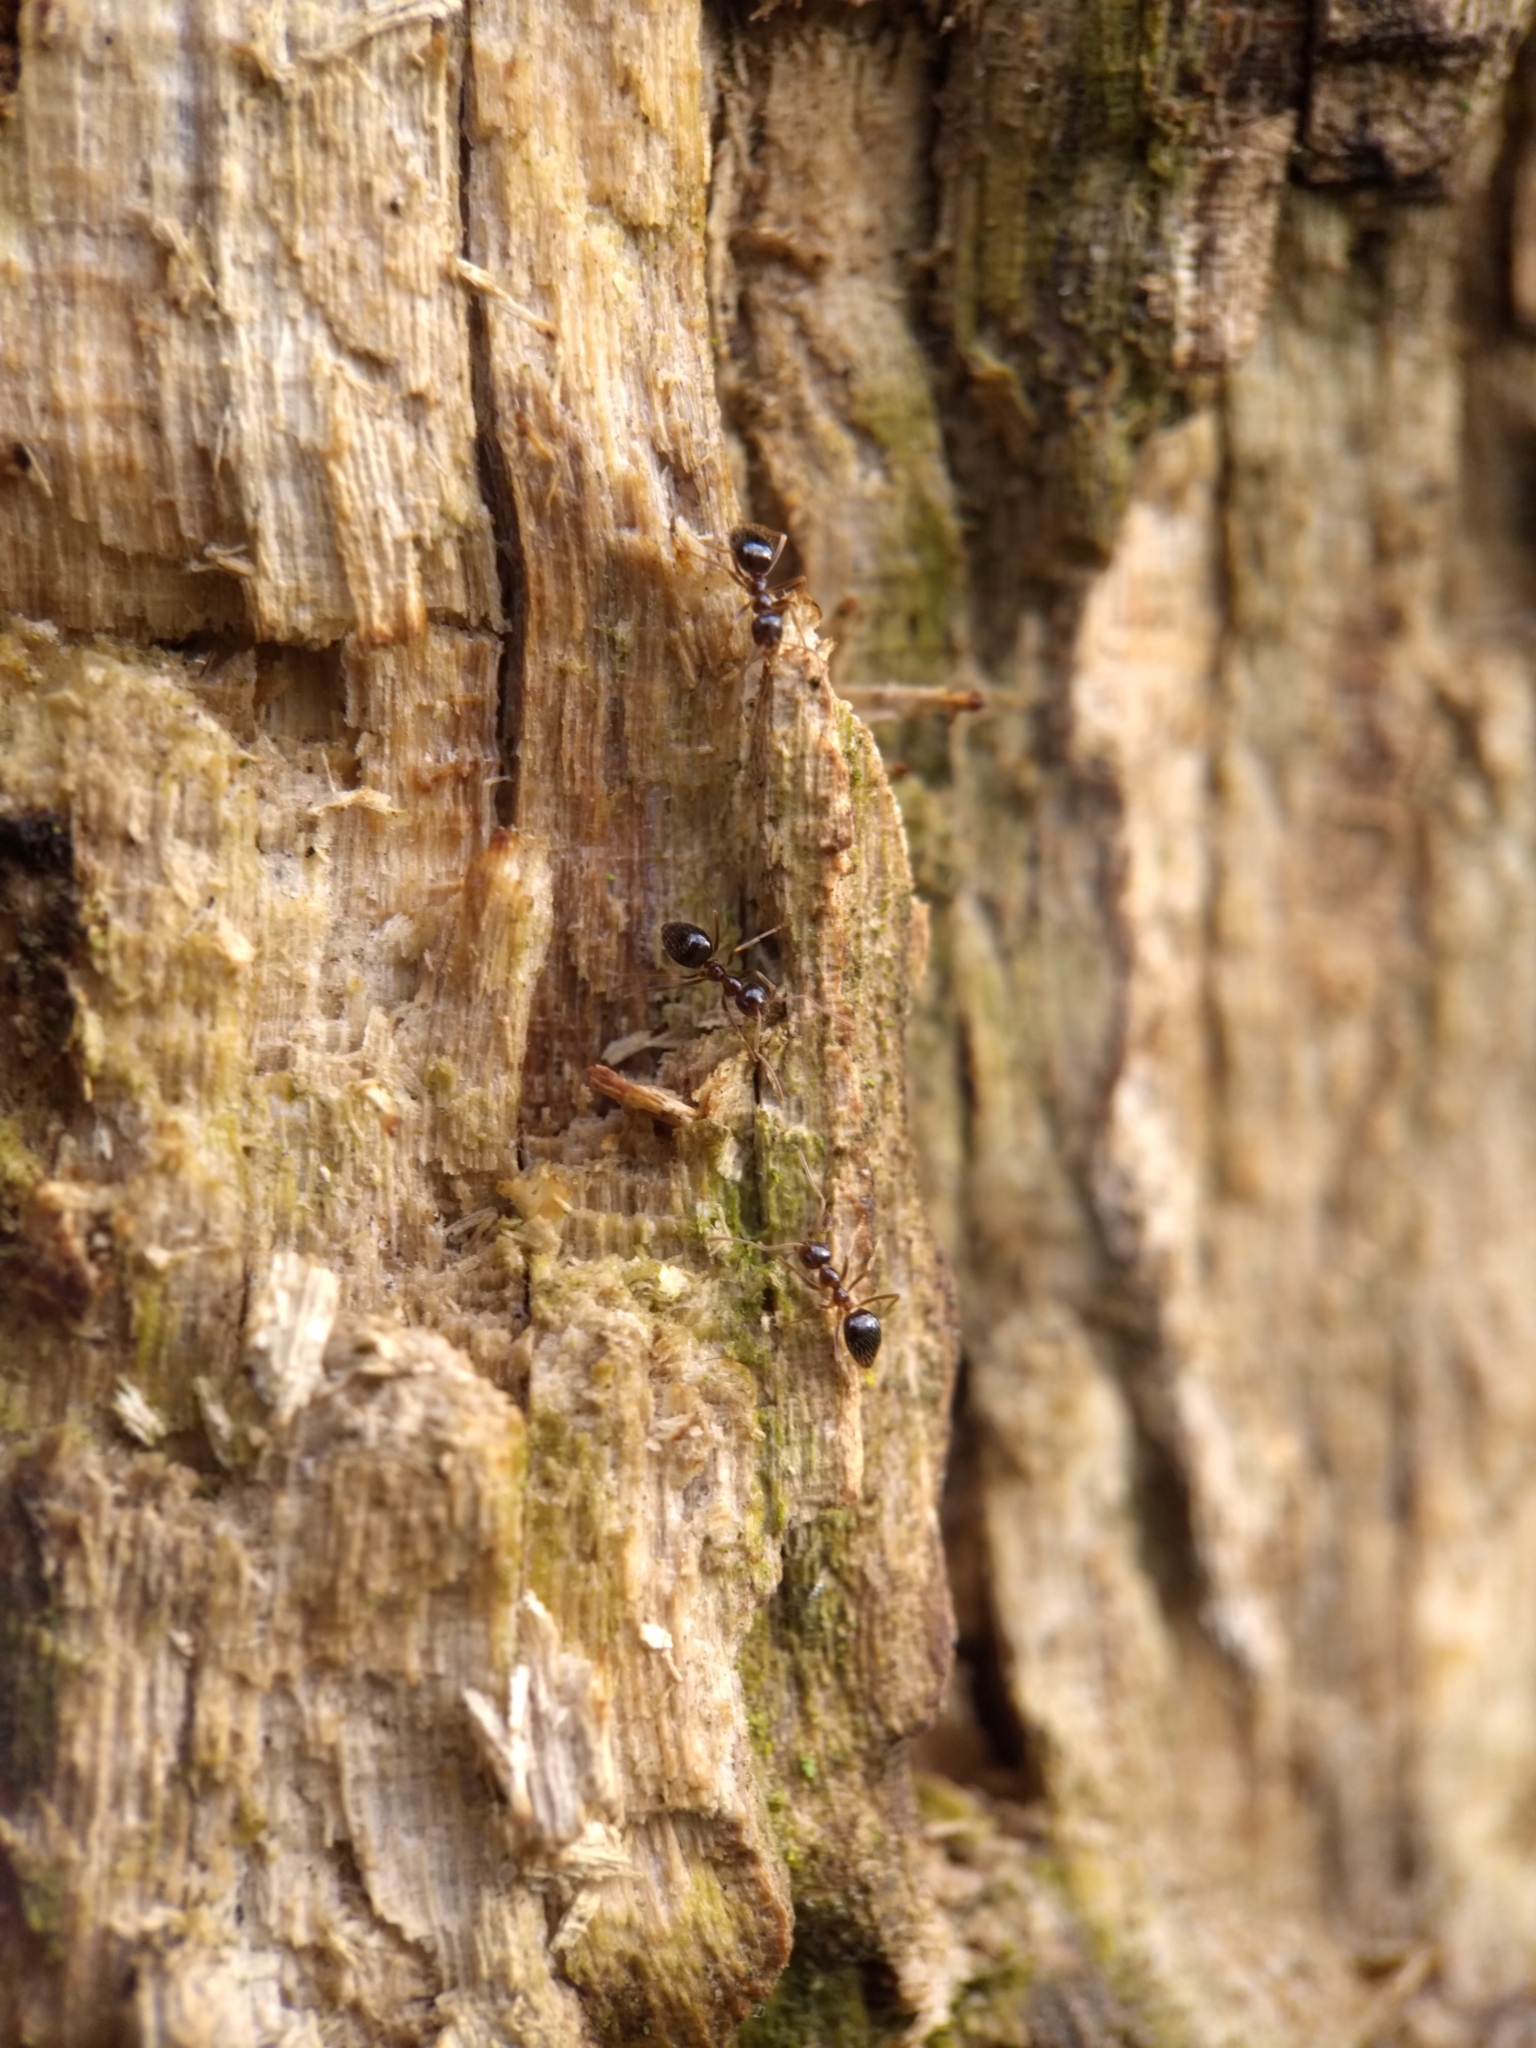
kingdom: Animalia
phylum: Arthropoda
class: Insecta
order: Hymenoptera
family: Formicidae
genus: Prenolepis
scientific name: Prenolepis imparis
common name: Small honey ant
